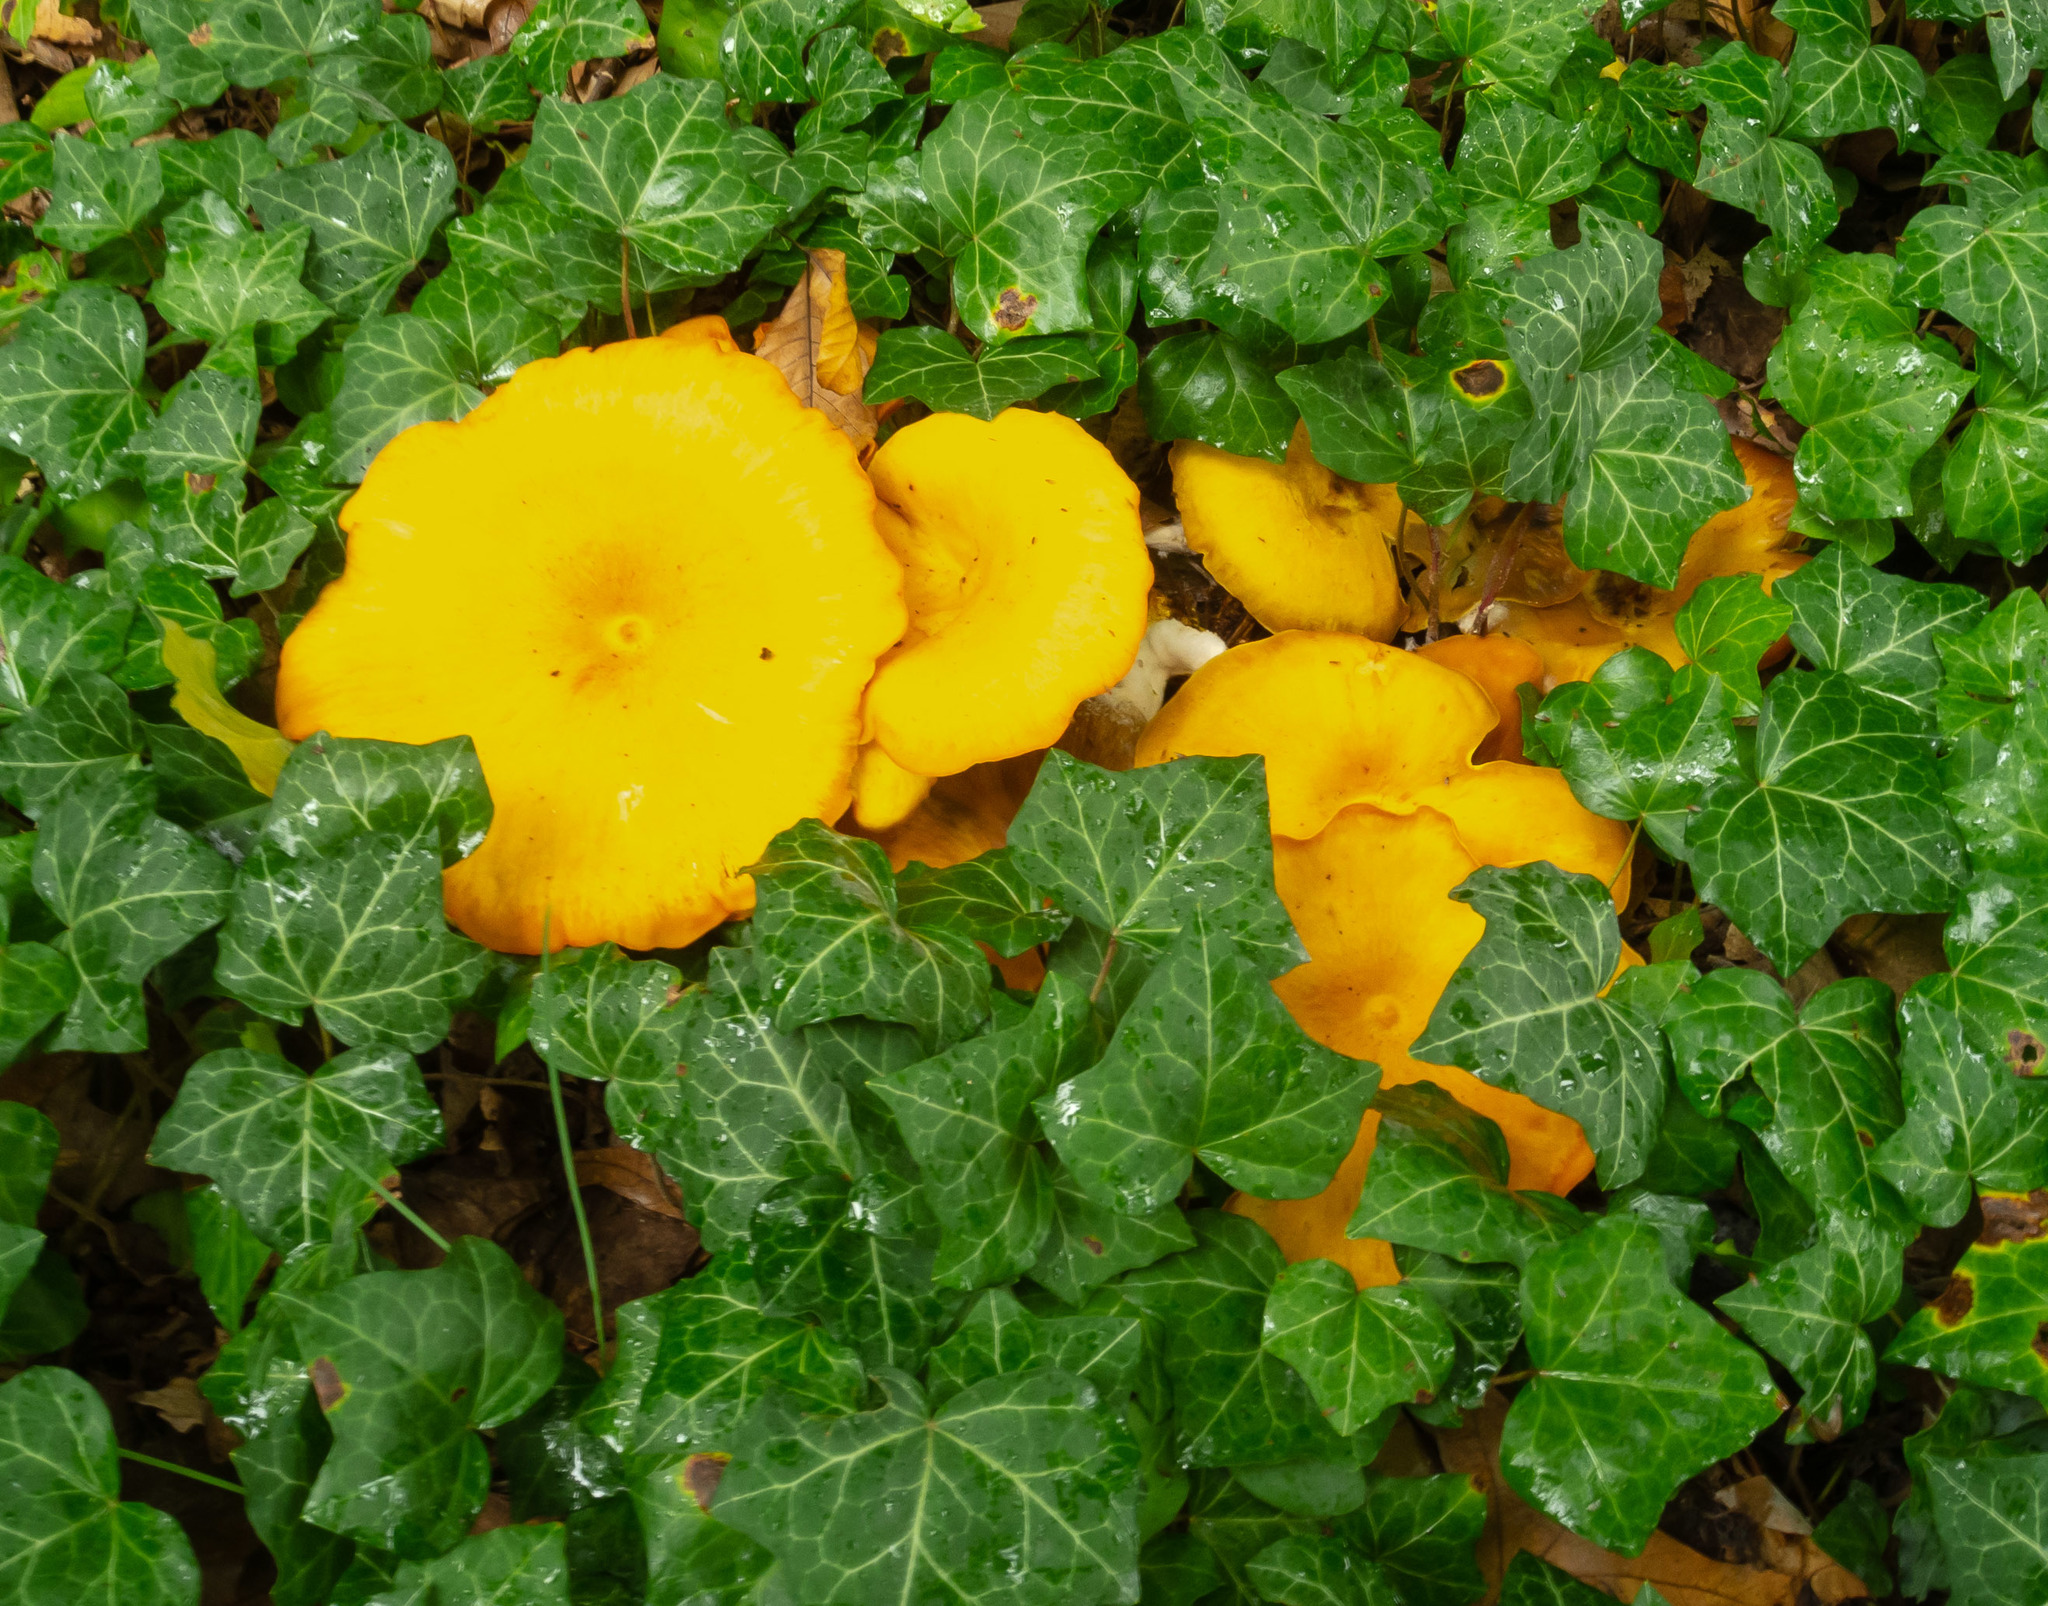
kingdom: Fungi
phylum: Basidiomycota
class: Agaricomycetes
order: Agaricales
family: Omphalotaceae
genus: Omphalotus
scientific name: Omphalotus illudens
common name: Jack o lantern
